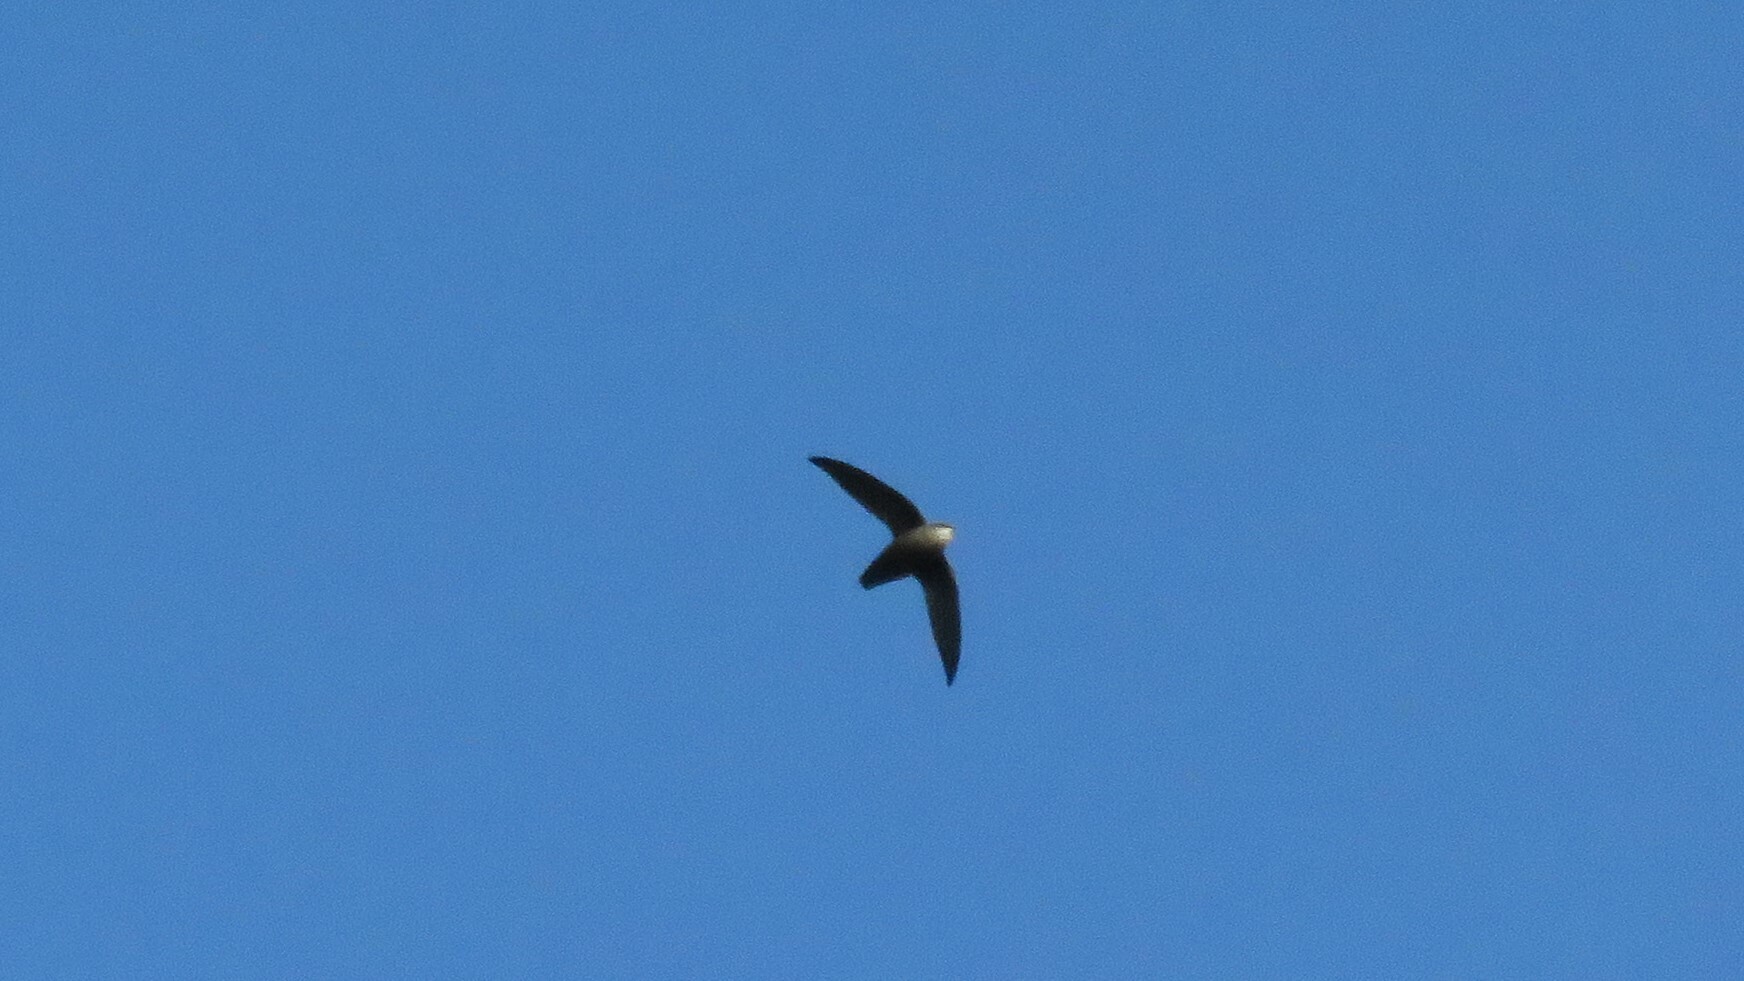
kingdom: Animalia
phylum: Chordata
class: Aves
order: Apodiformes
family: Apodidae
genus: Chaetura
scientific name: Chaetura pelagica
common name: Chimney swift
